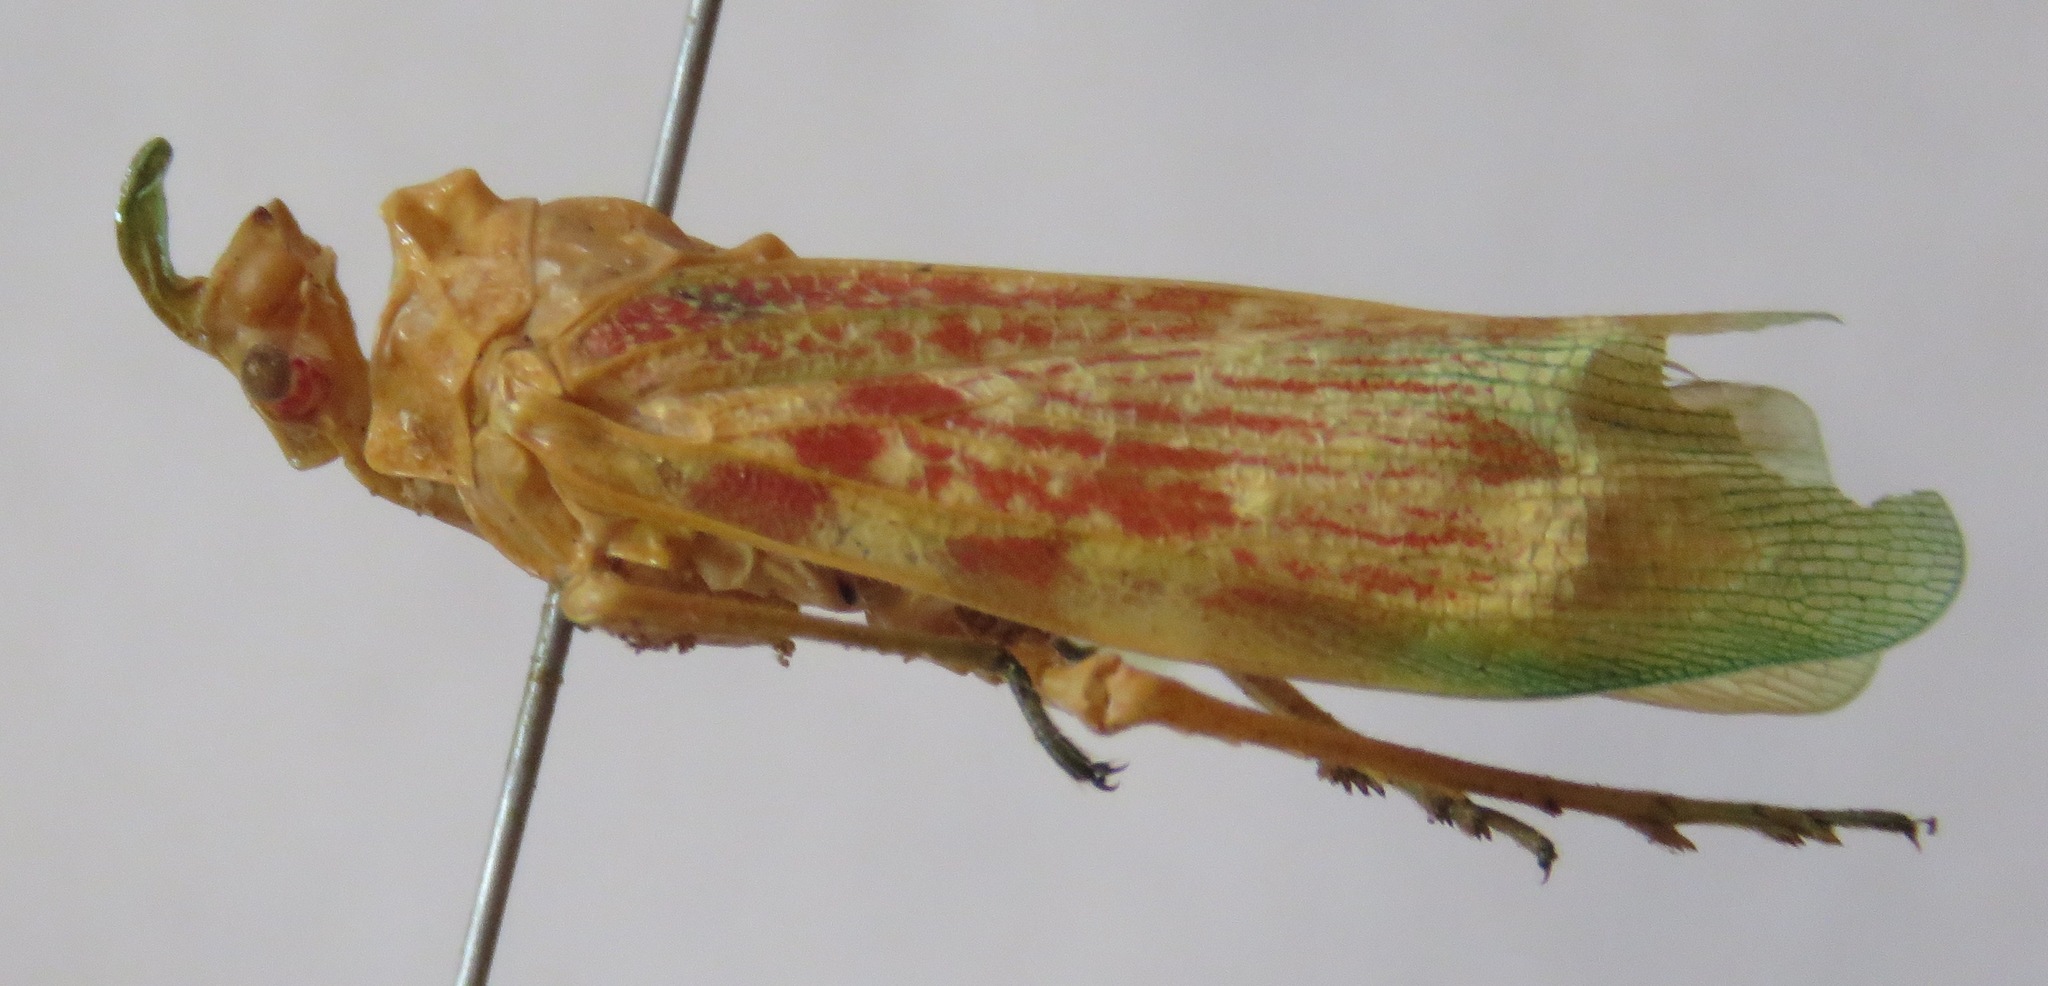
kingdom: Animalia
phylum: Arthropoda
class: Insecta
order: Hemiptera
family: Fulgoridae
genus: Enchophora
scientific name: Enchophora rosacea
